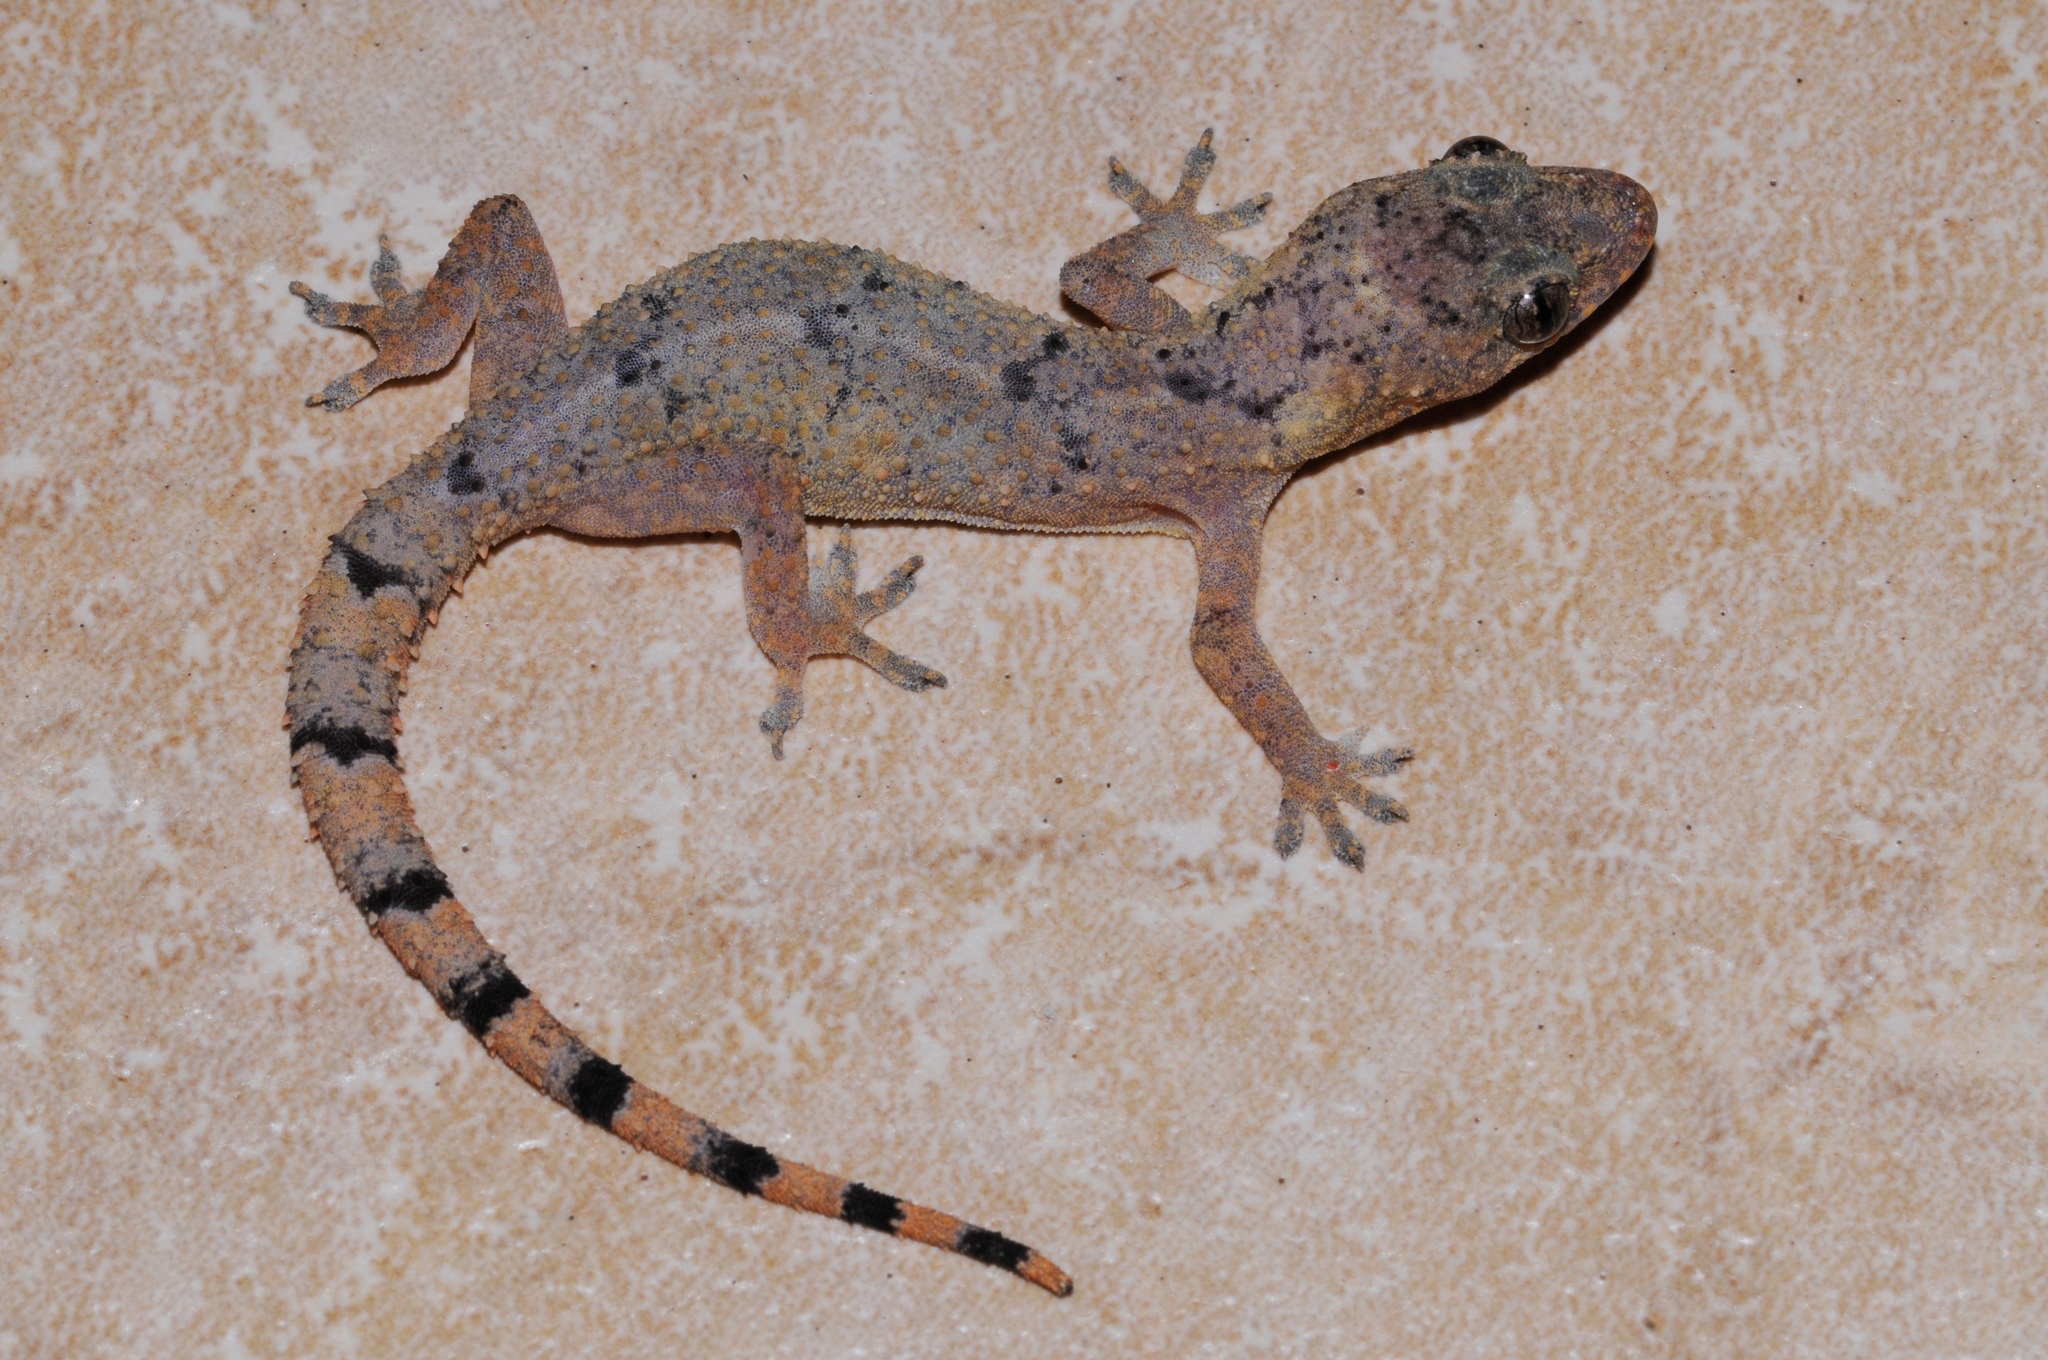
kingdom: Animalia
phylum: Chordata
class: Squamata
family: Gekkonidae
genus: Hemidactylus
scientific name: Hemidactylus mabouia
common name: House gecko
